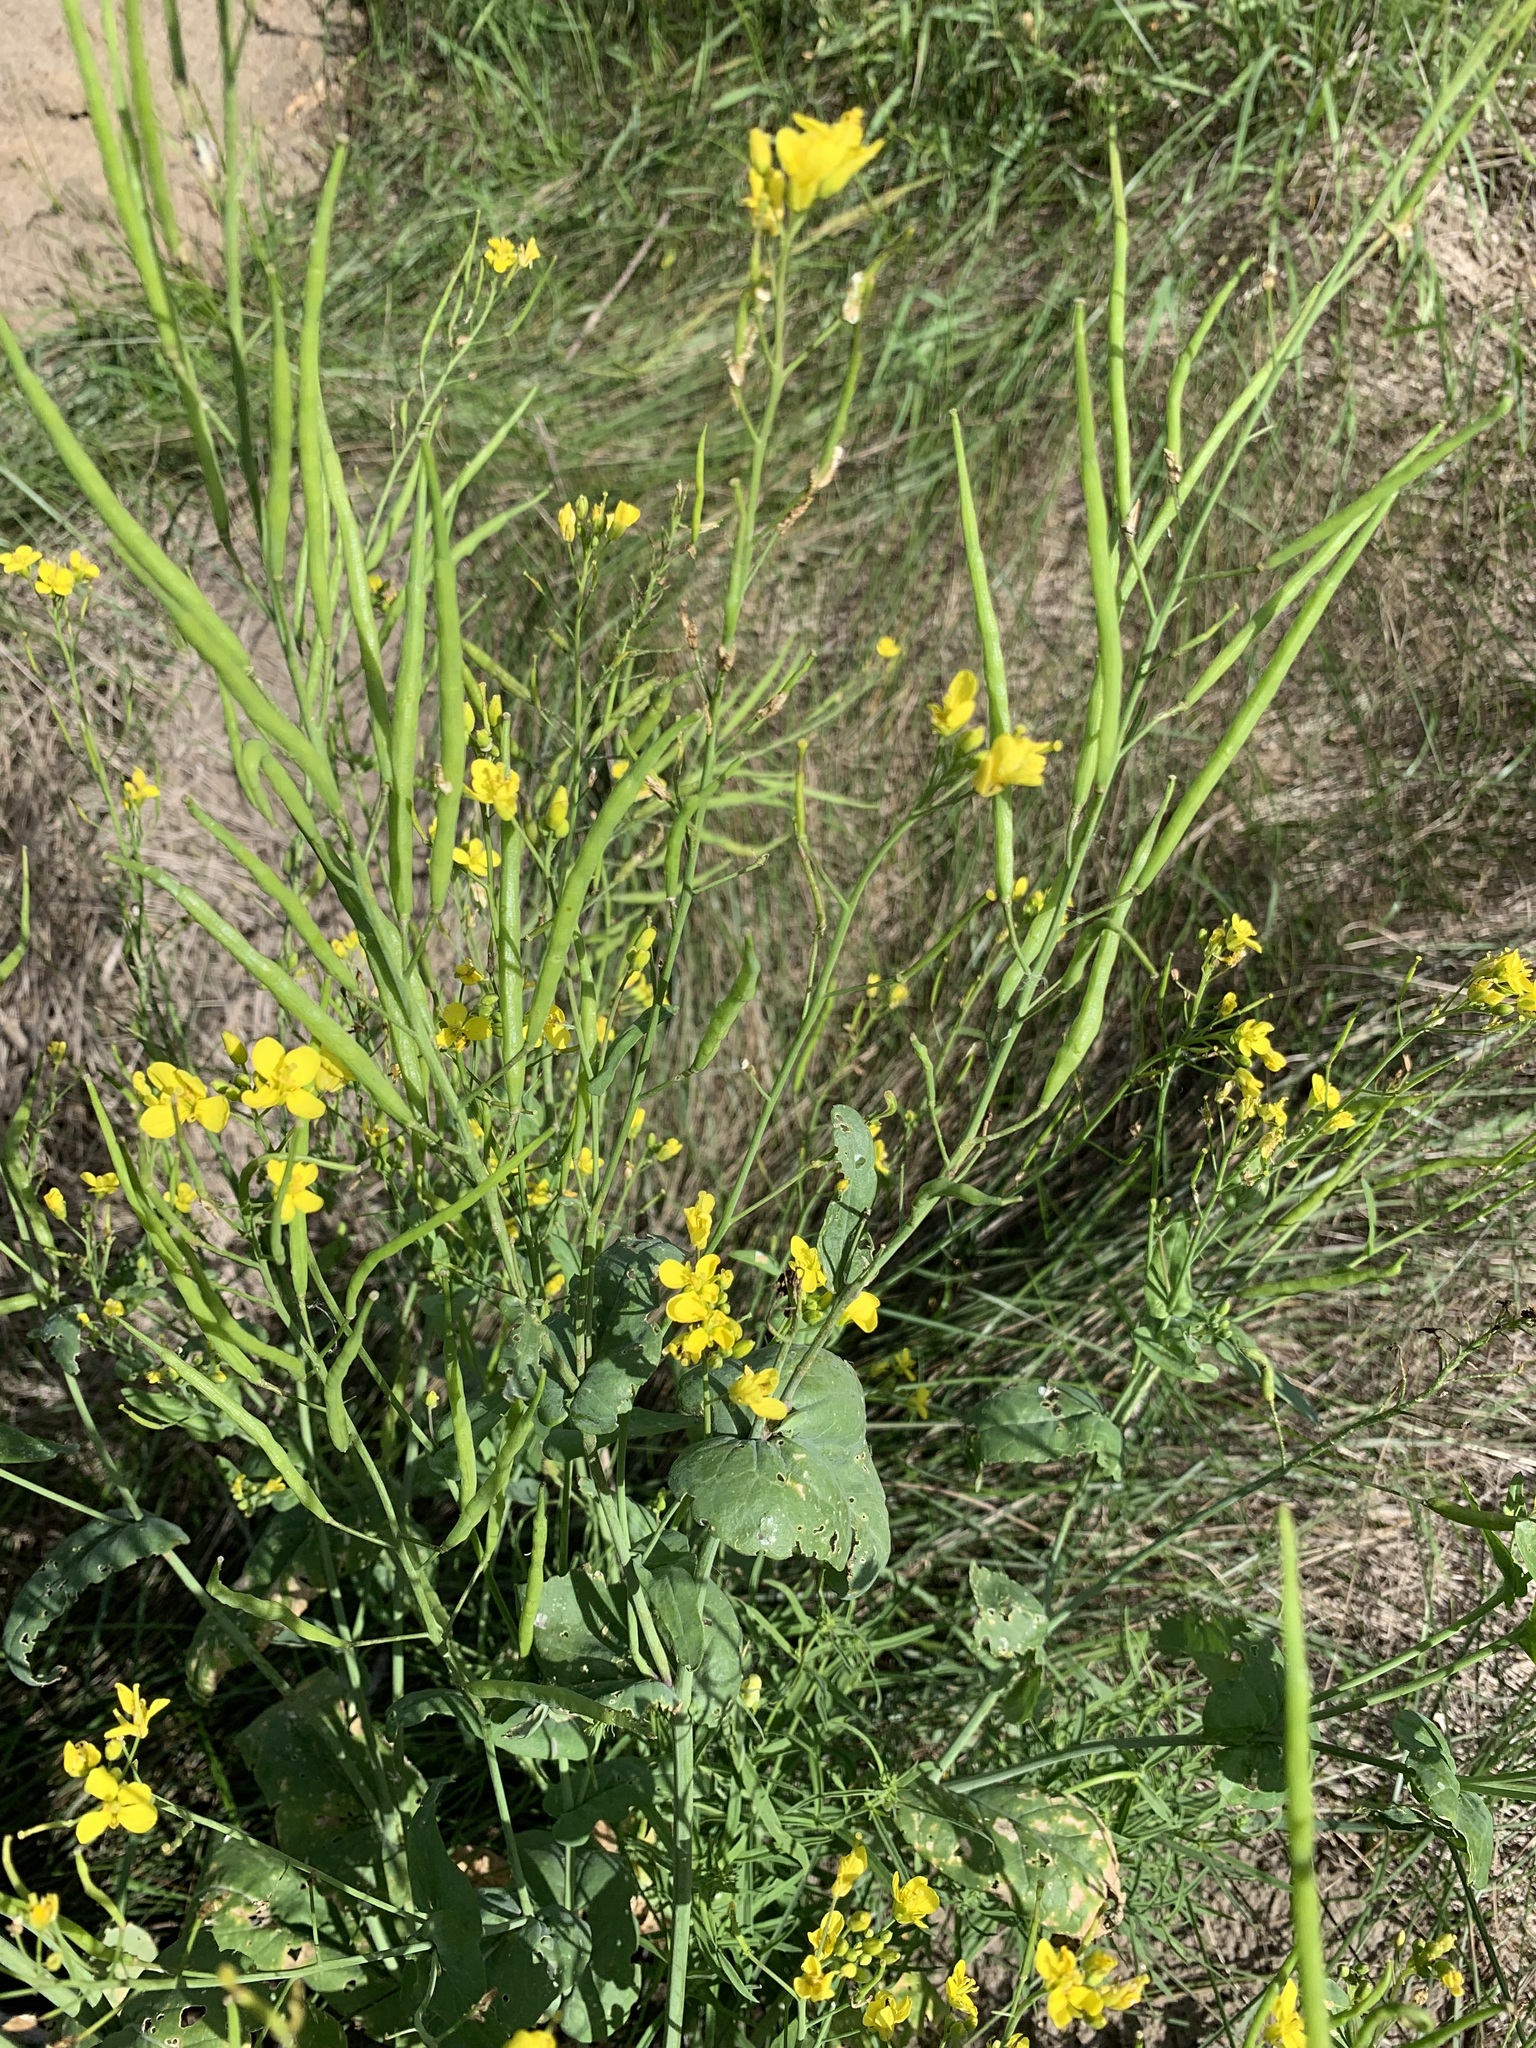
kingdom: Plantae
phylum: Tracheophyta
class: Magnoliopsida
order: Brassicales
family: Brassicaceae
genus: Brassica
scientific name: Brassica rapa
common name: Field mustard
